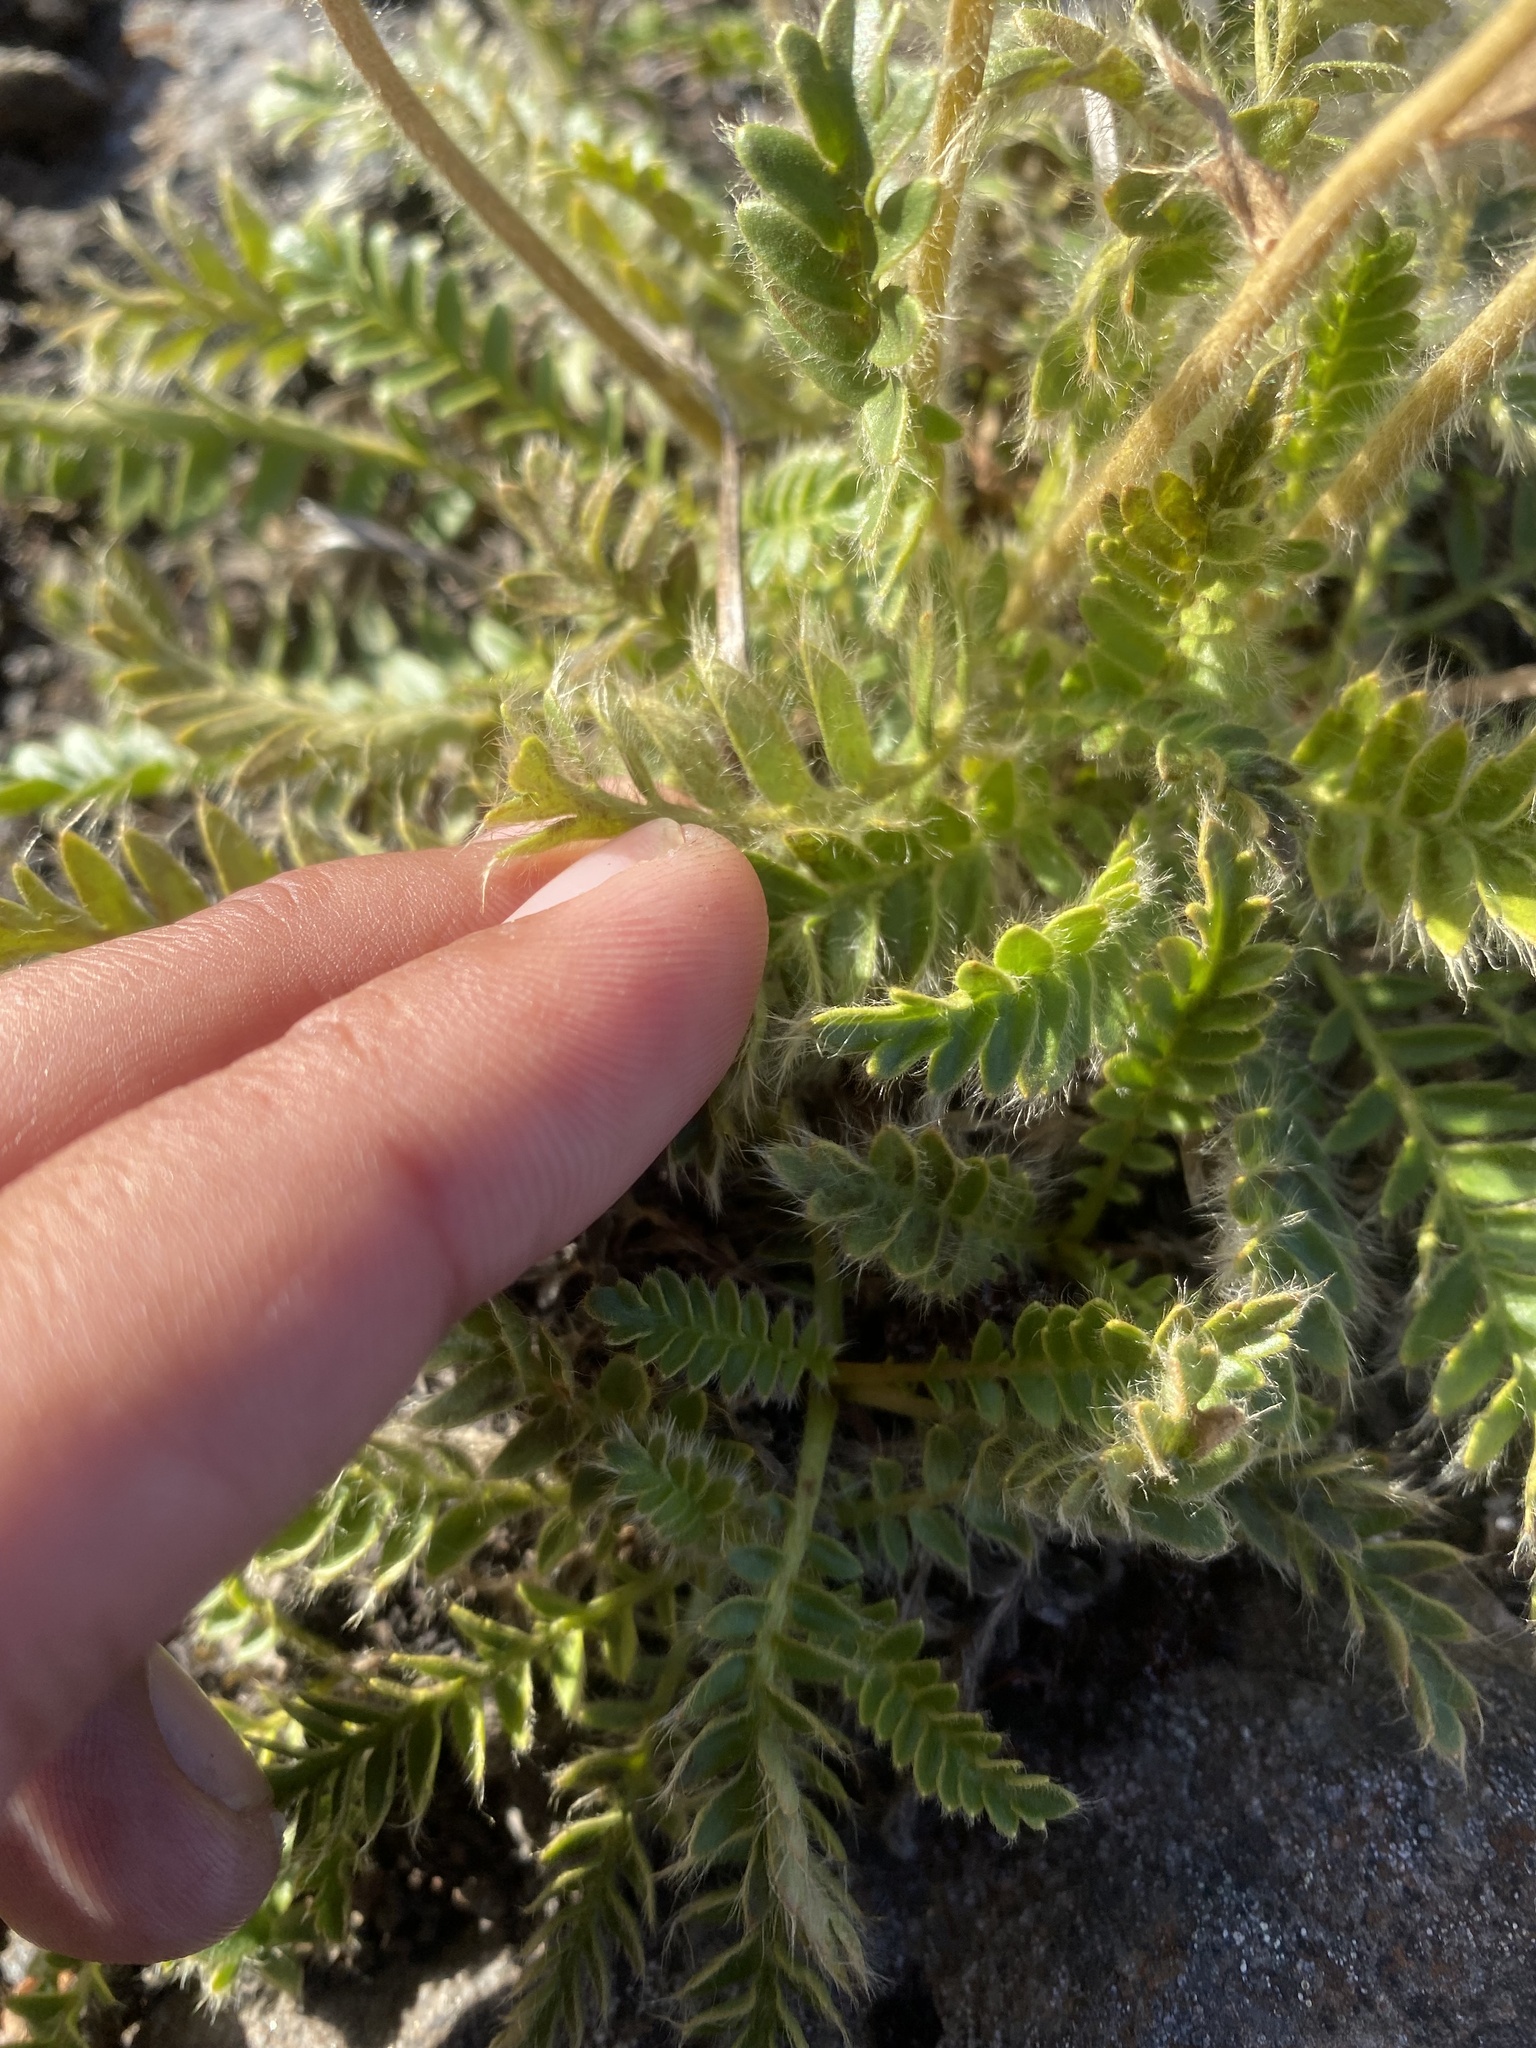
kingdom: Plantae
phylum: Tracheophyta
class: Magnoliopsida
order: Rosales
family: Rosaceae
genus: Geum
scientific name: Geum glaciale
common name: Glacier avens
